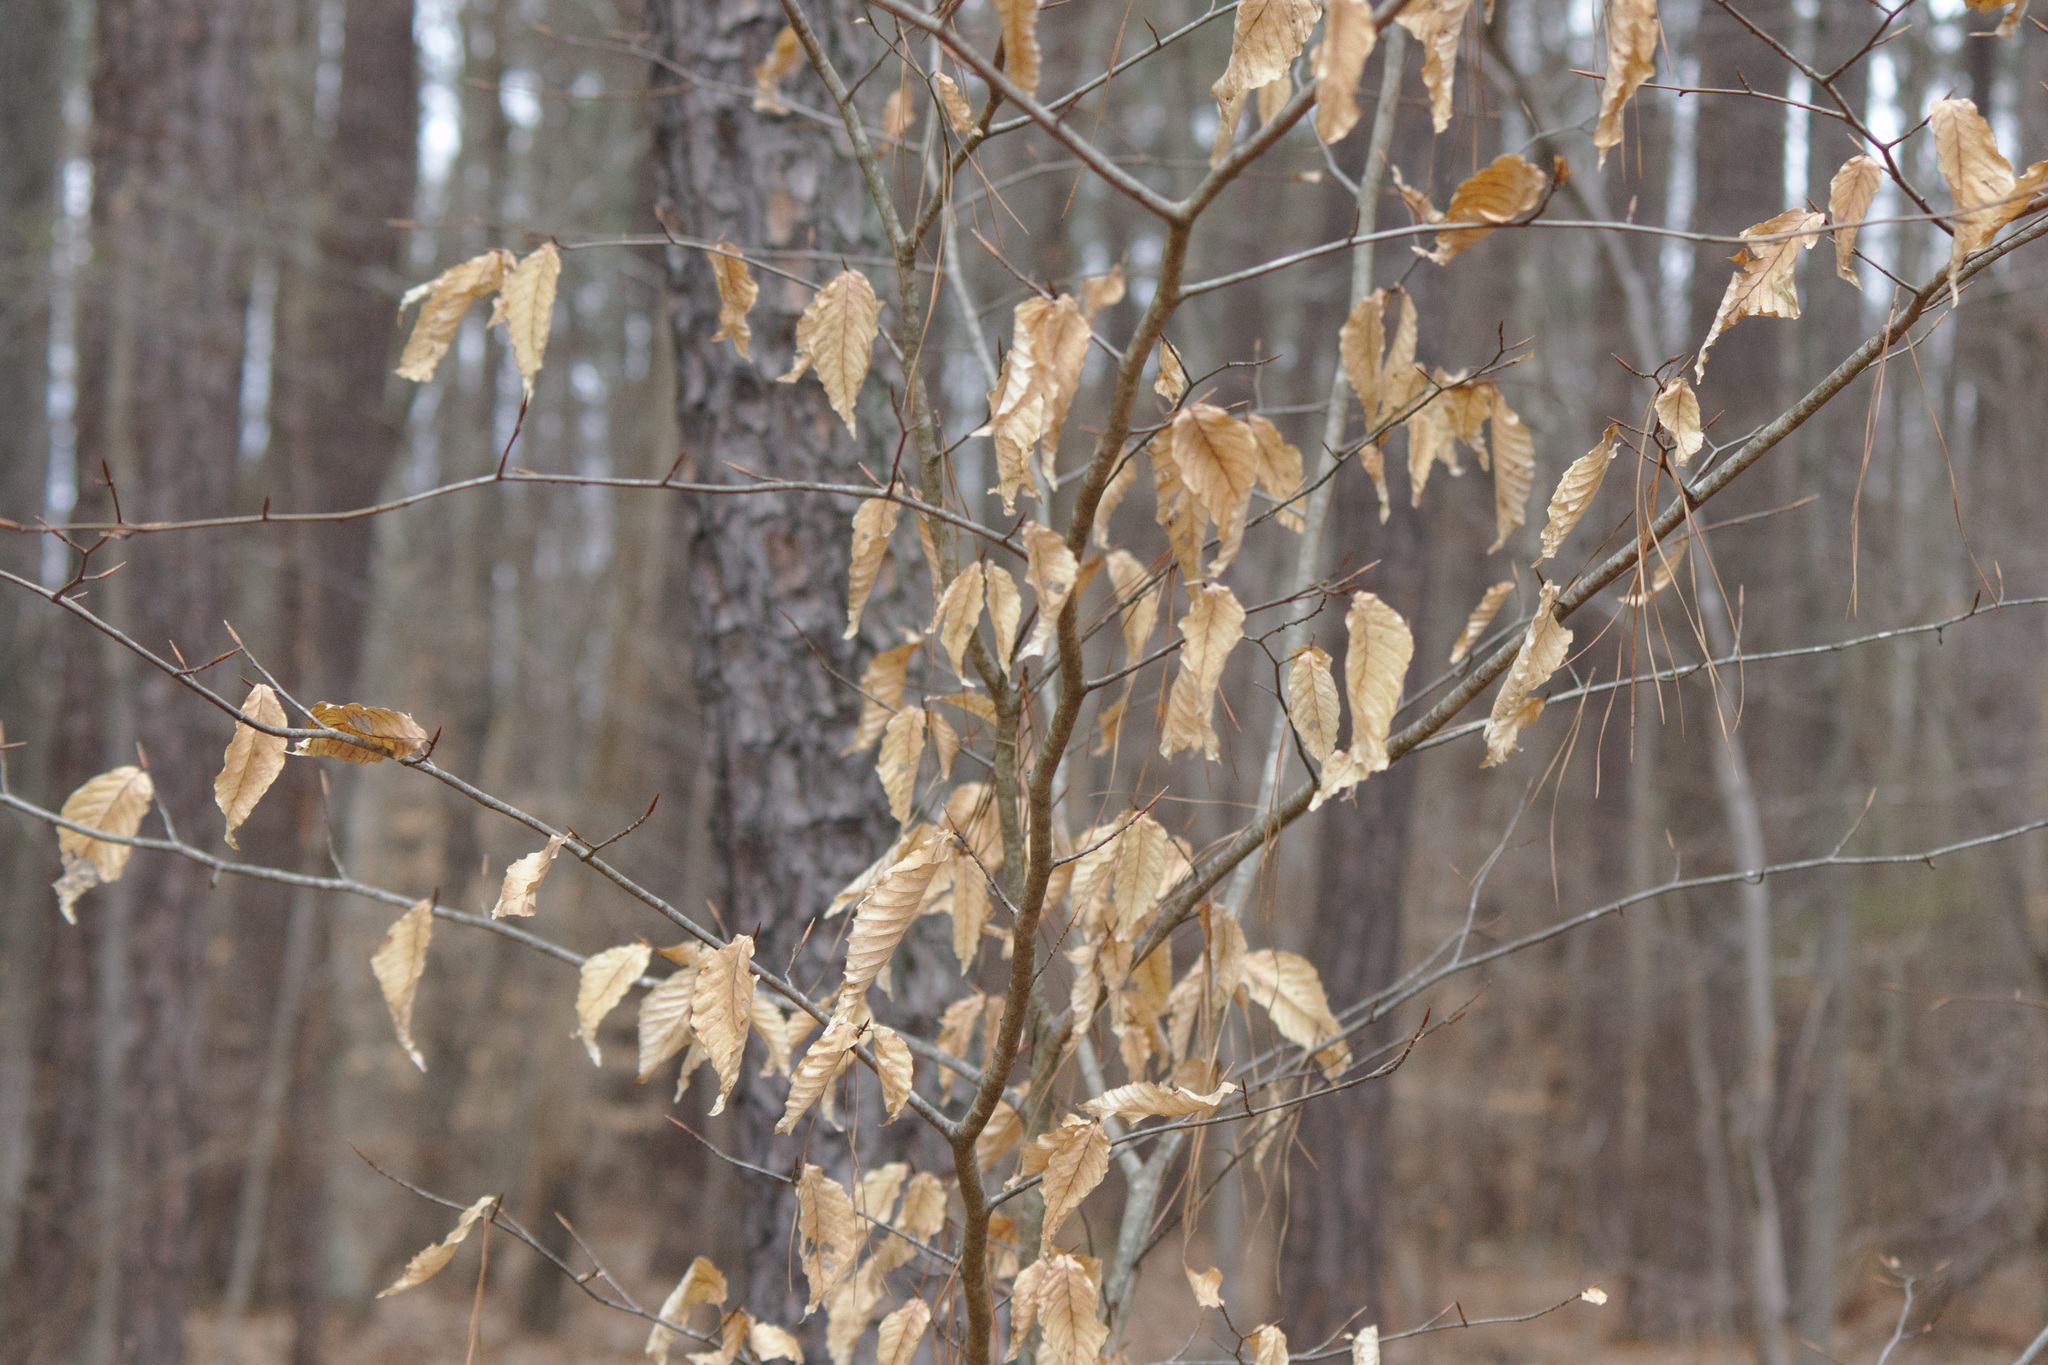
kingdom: Plantae
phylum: Tracheophyta
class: Magnoliopsida
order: Fagales
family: Fagaceae
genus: Fagus
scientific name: Fagus grandifolia
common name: American beech
